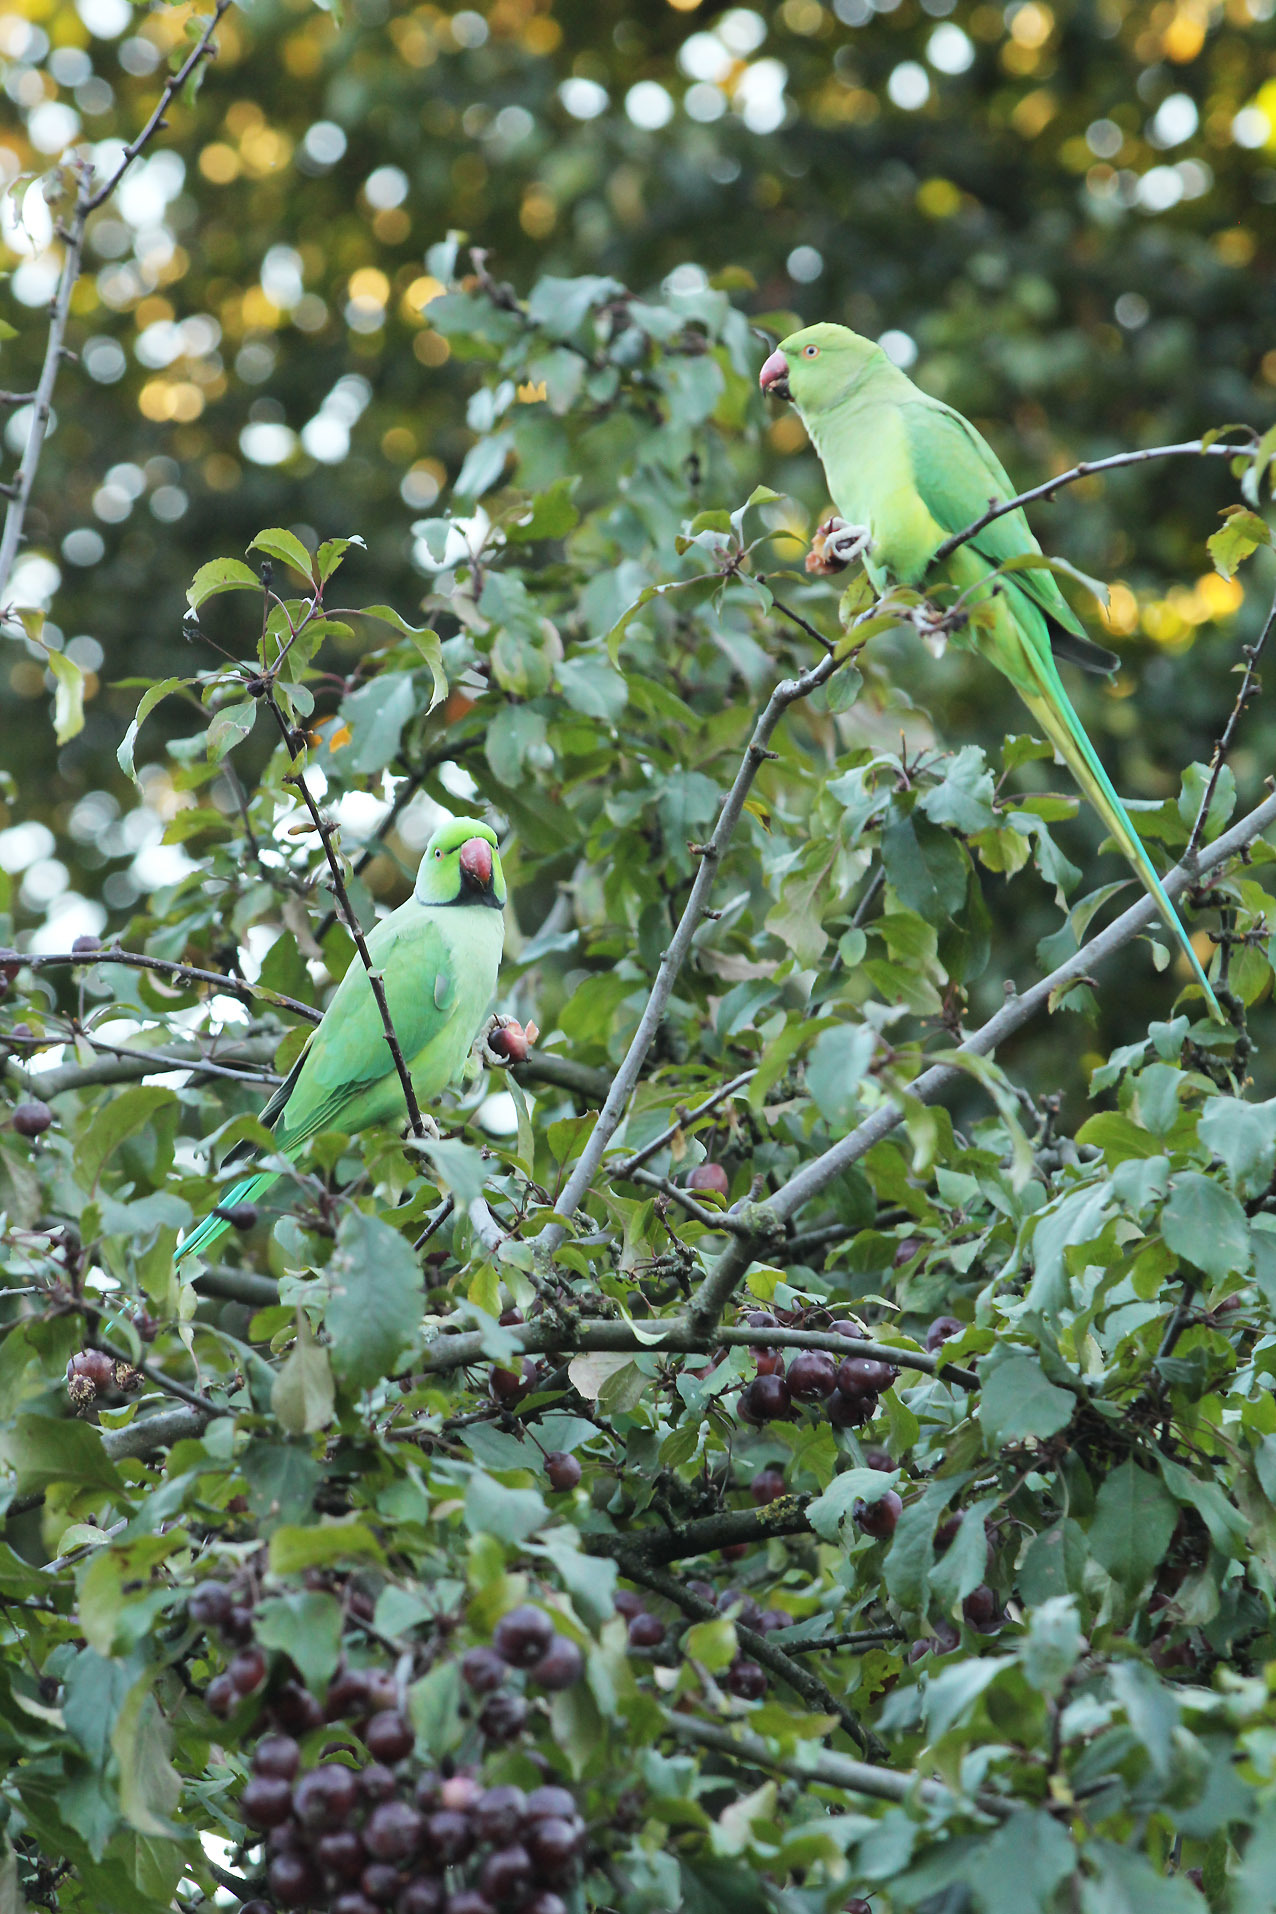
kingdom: Animalia
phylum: Chordata
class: Aves
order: Psittaciformes
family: Psittacidae
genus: Psittacula
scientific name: Psittacula krameri
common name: Rose-ringed parakeet
